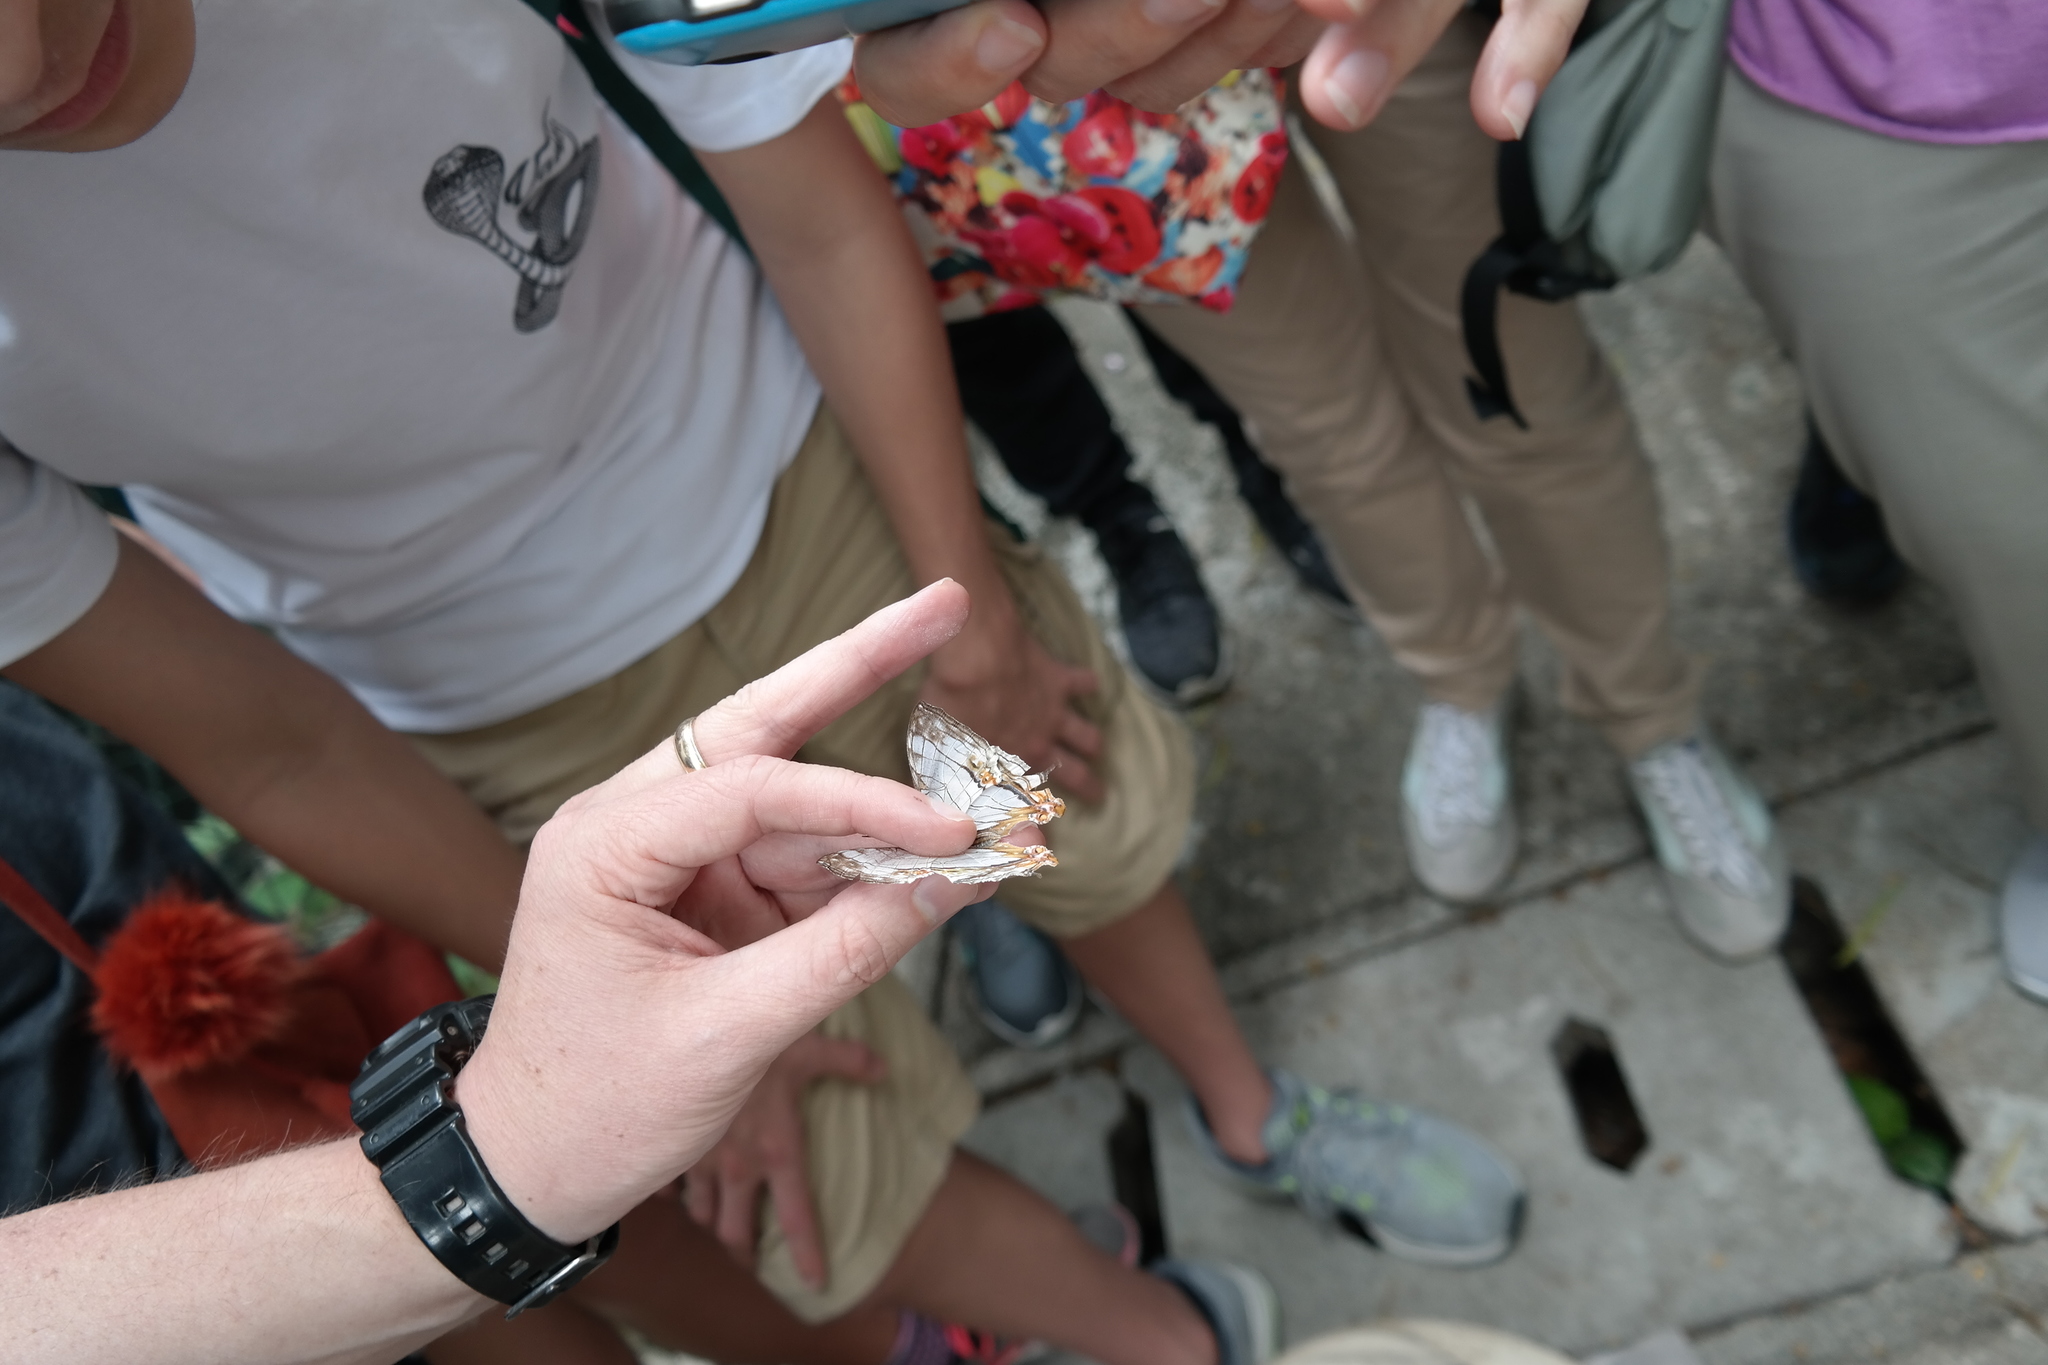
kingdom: Animalia
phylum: Arthropoda
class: Insecta
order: Lepidoptera
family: Nymphalidae
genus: Cyrestis
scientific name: Cyrestis thyodamas
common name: Common mapwing
